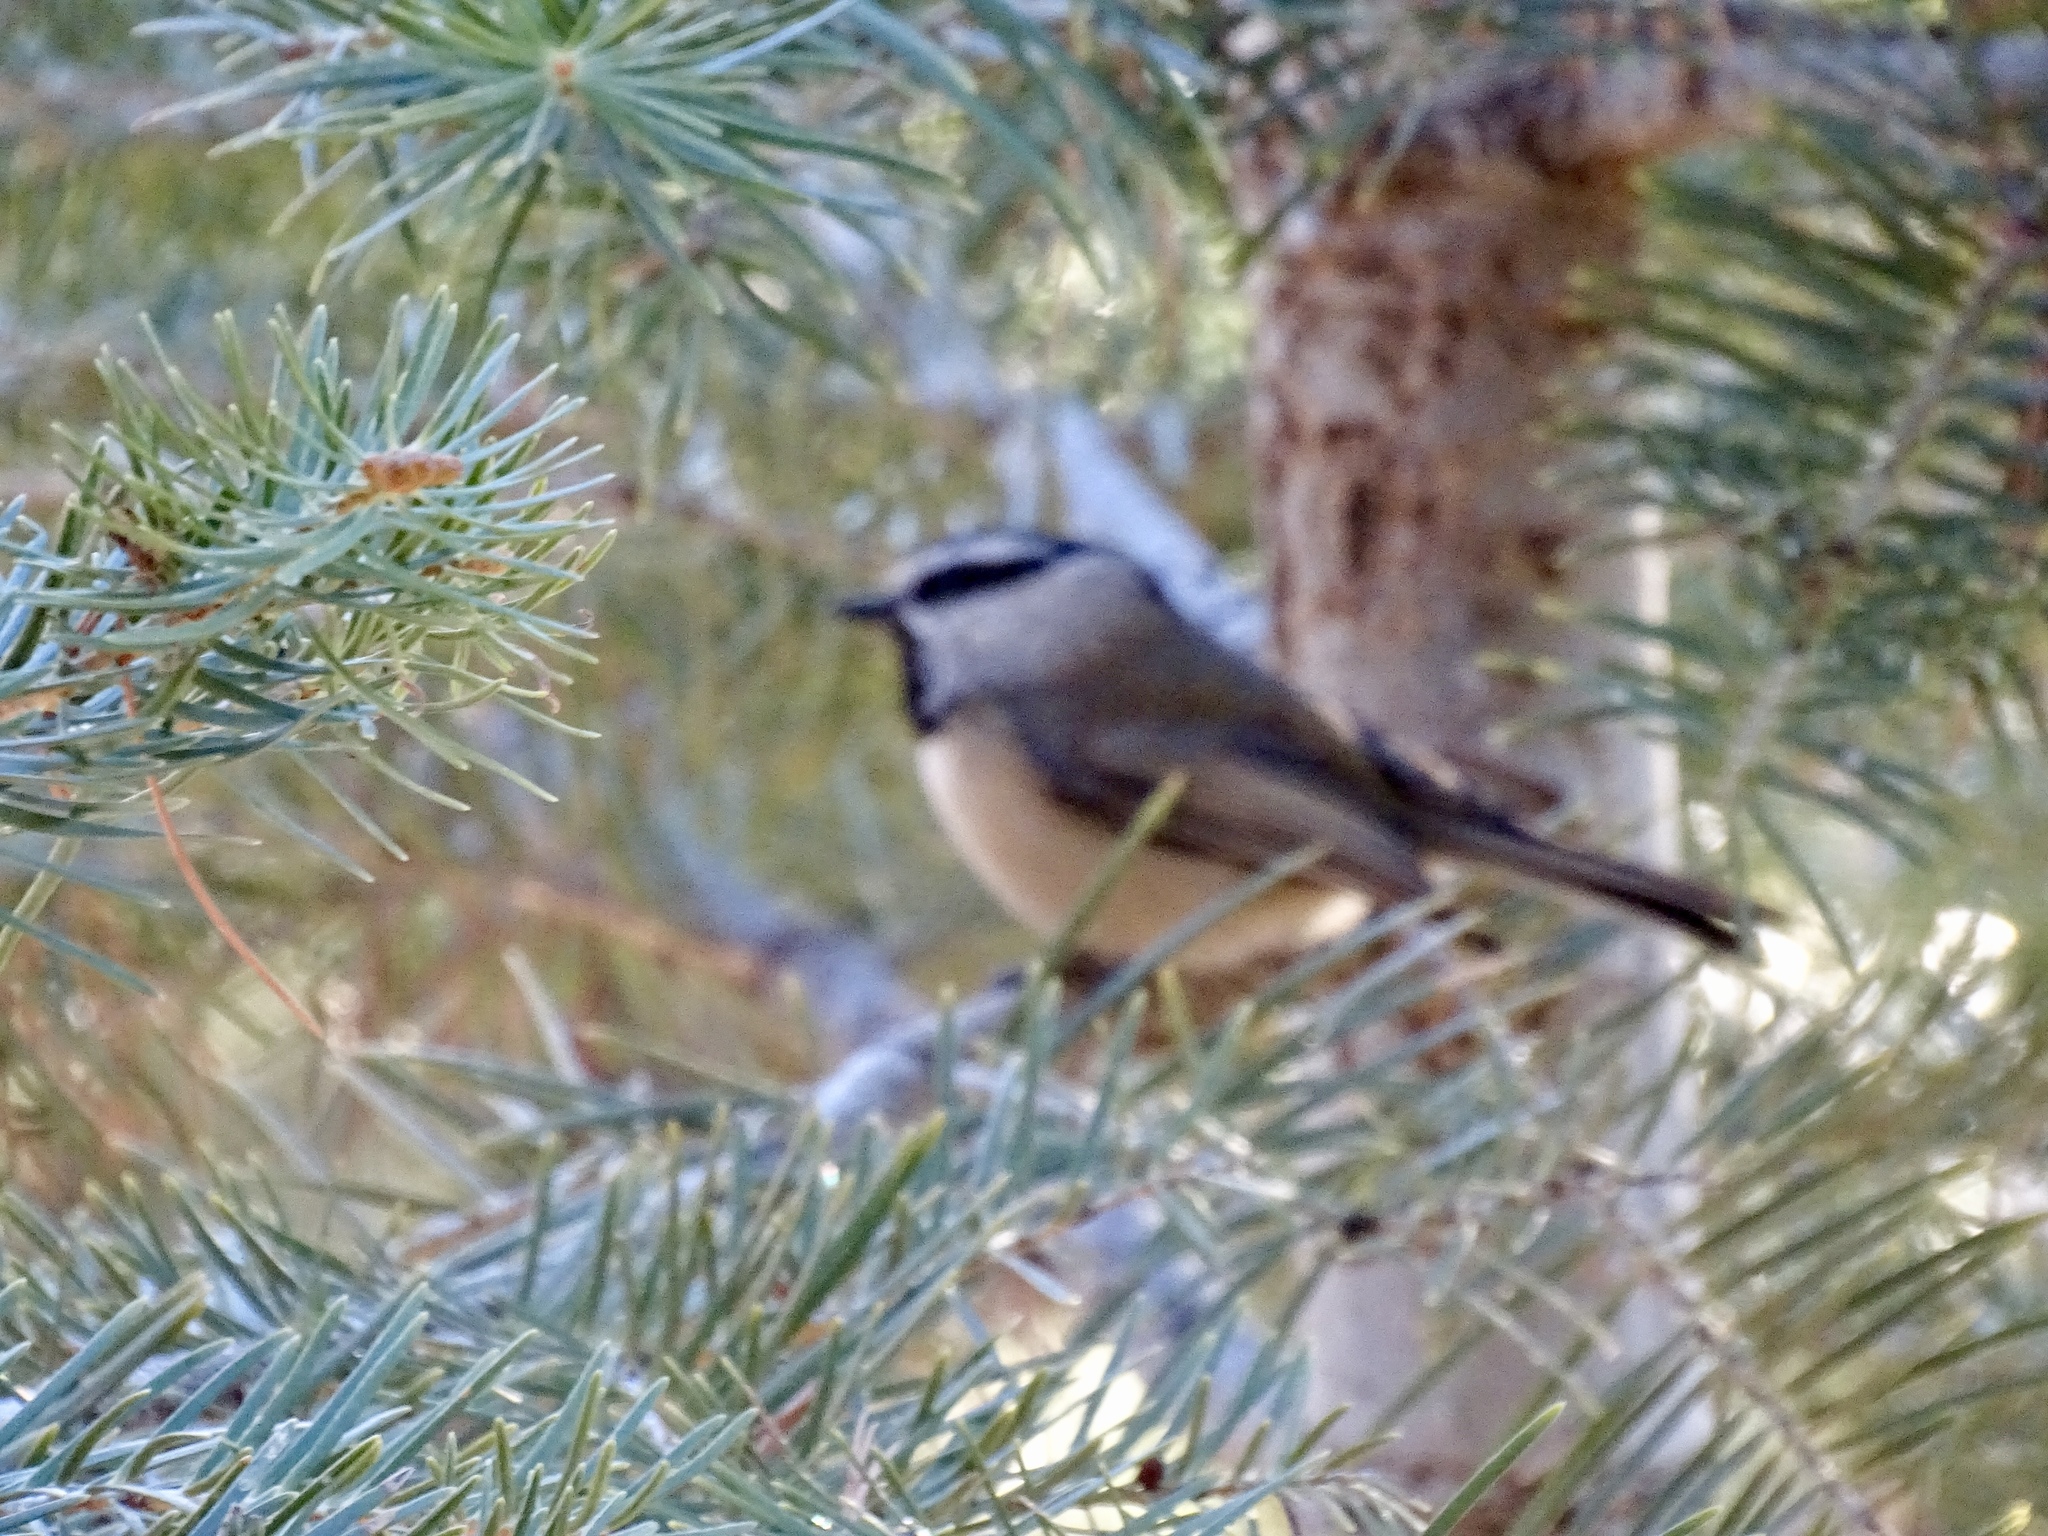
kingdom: Animalia
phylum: Chordata
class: Aves
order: Passeriformes
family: Paridae
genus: Poecile
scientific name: Poecile gambeli
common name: Mountain chickadee
